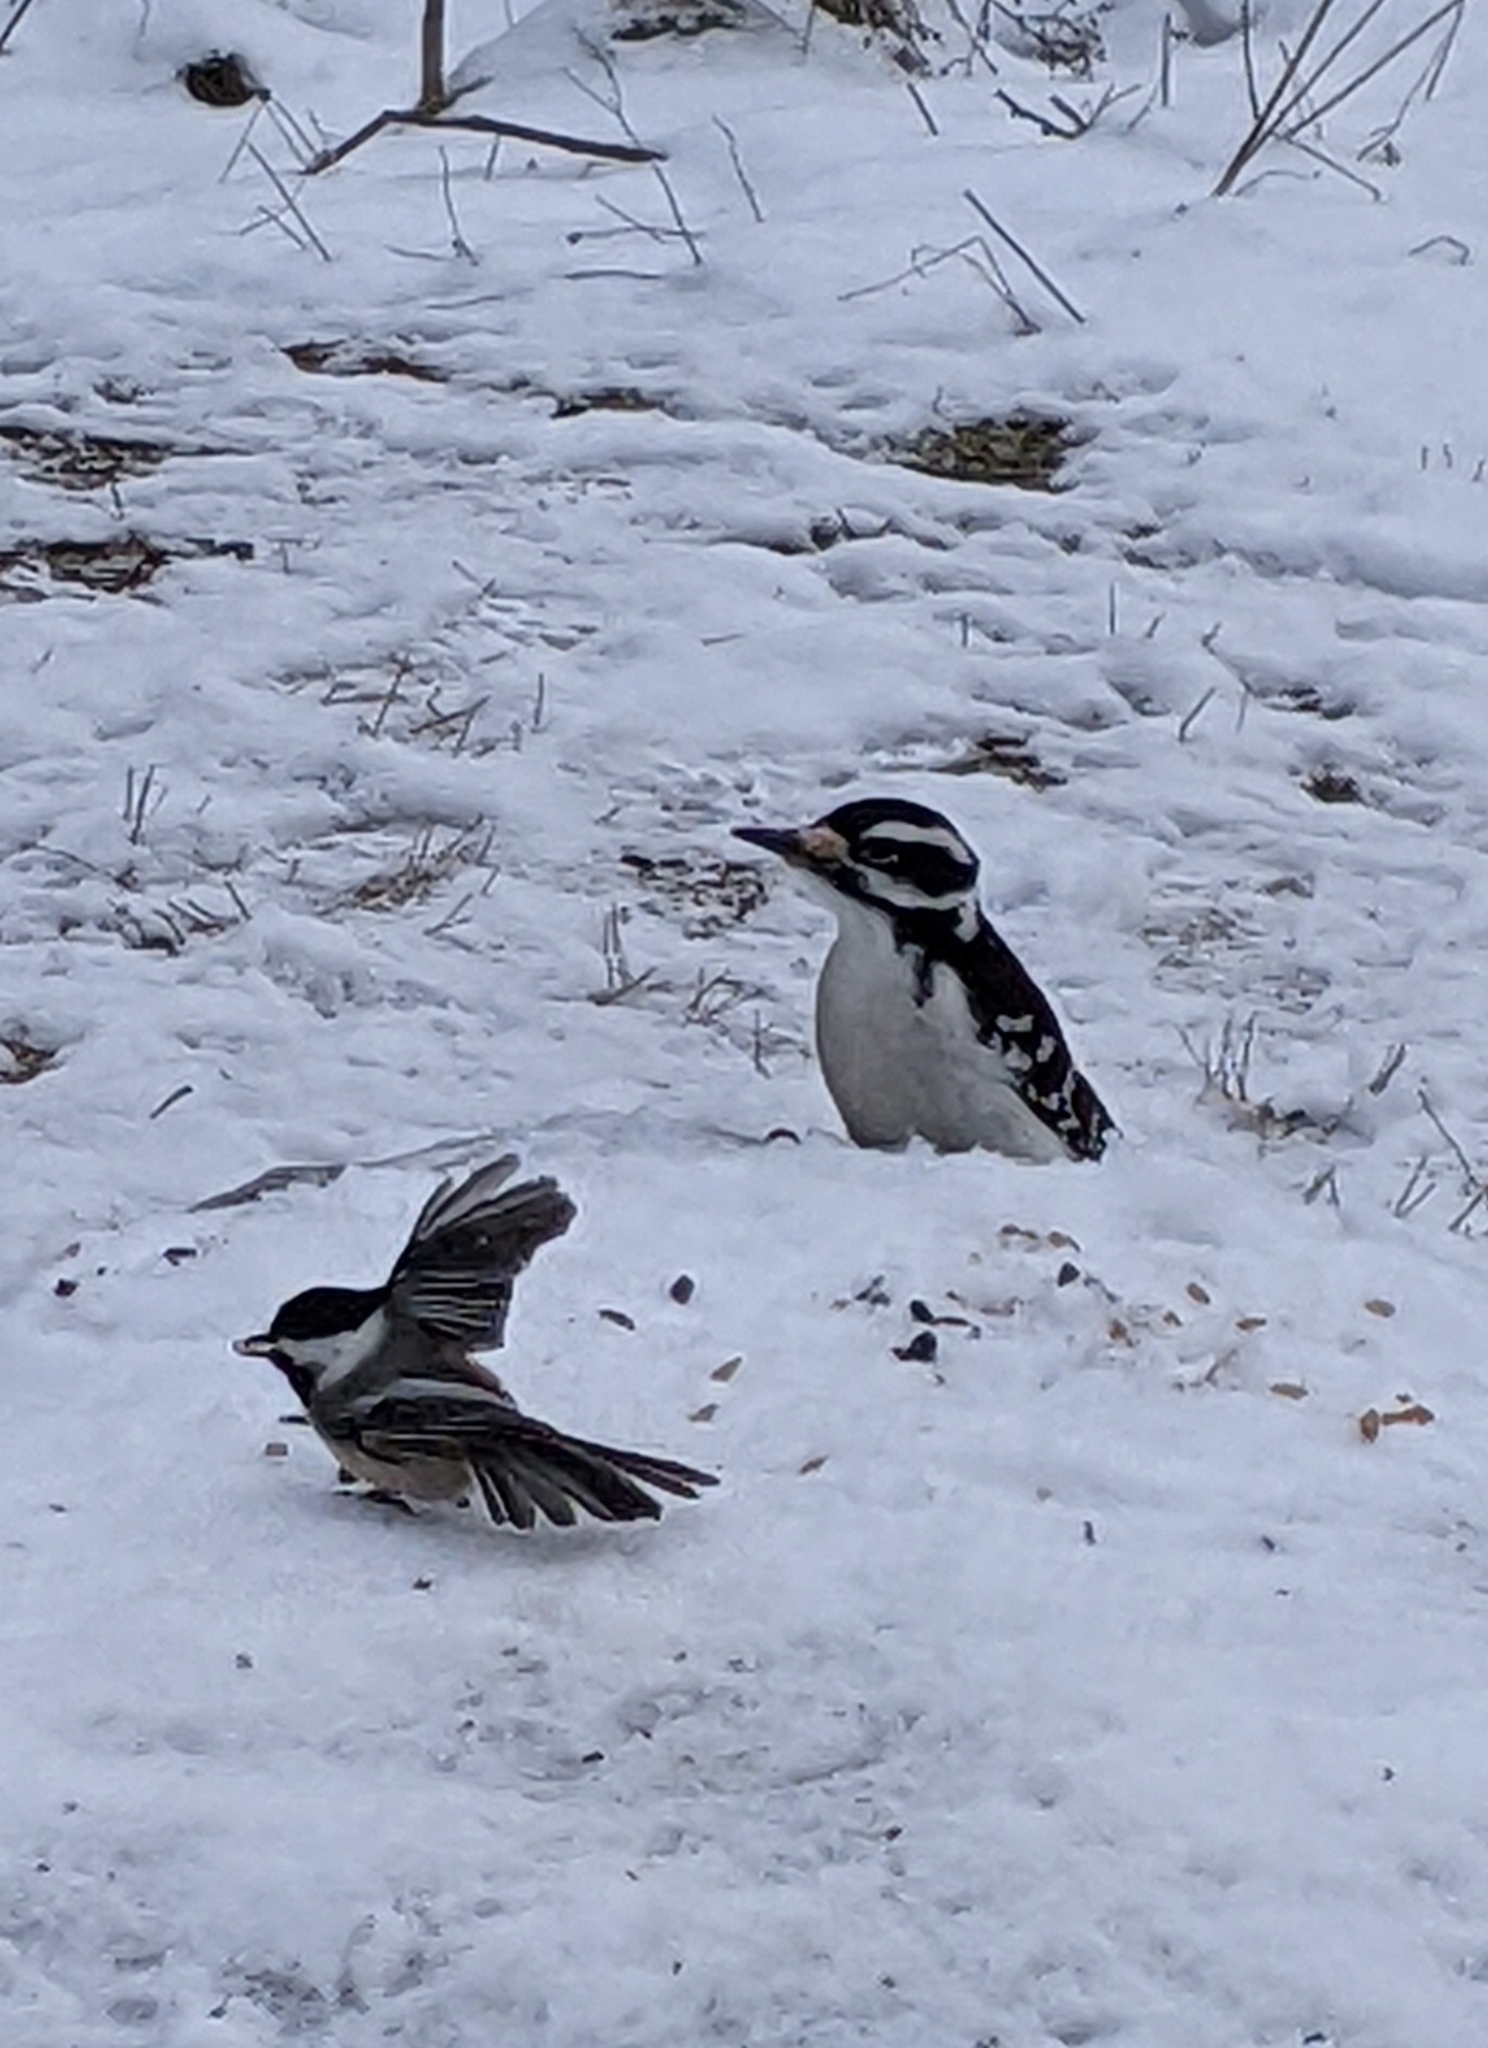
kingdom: Animalia
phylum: Chordata
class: Aves
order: Piciformes
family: Picidae
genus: Leuconotopicus
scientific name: Leuconotopicus villosus
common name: Hairy woodpecker
